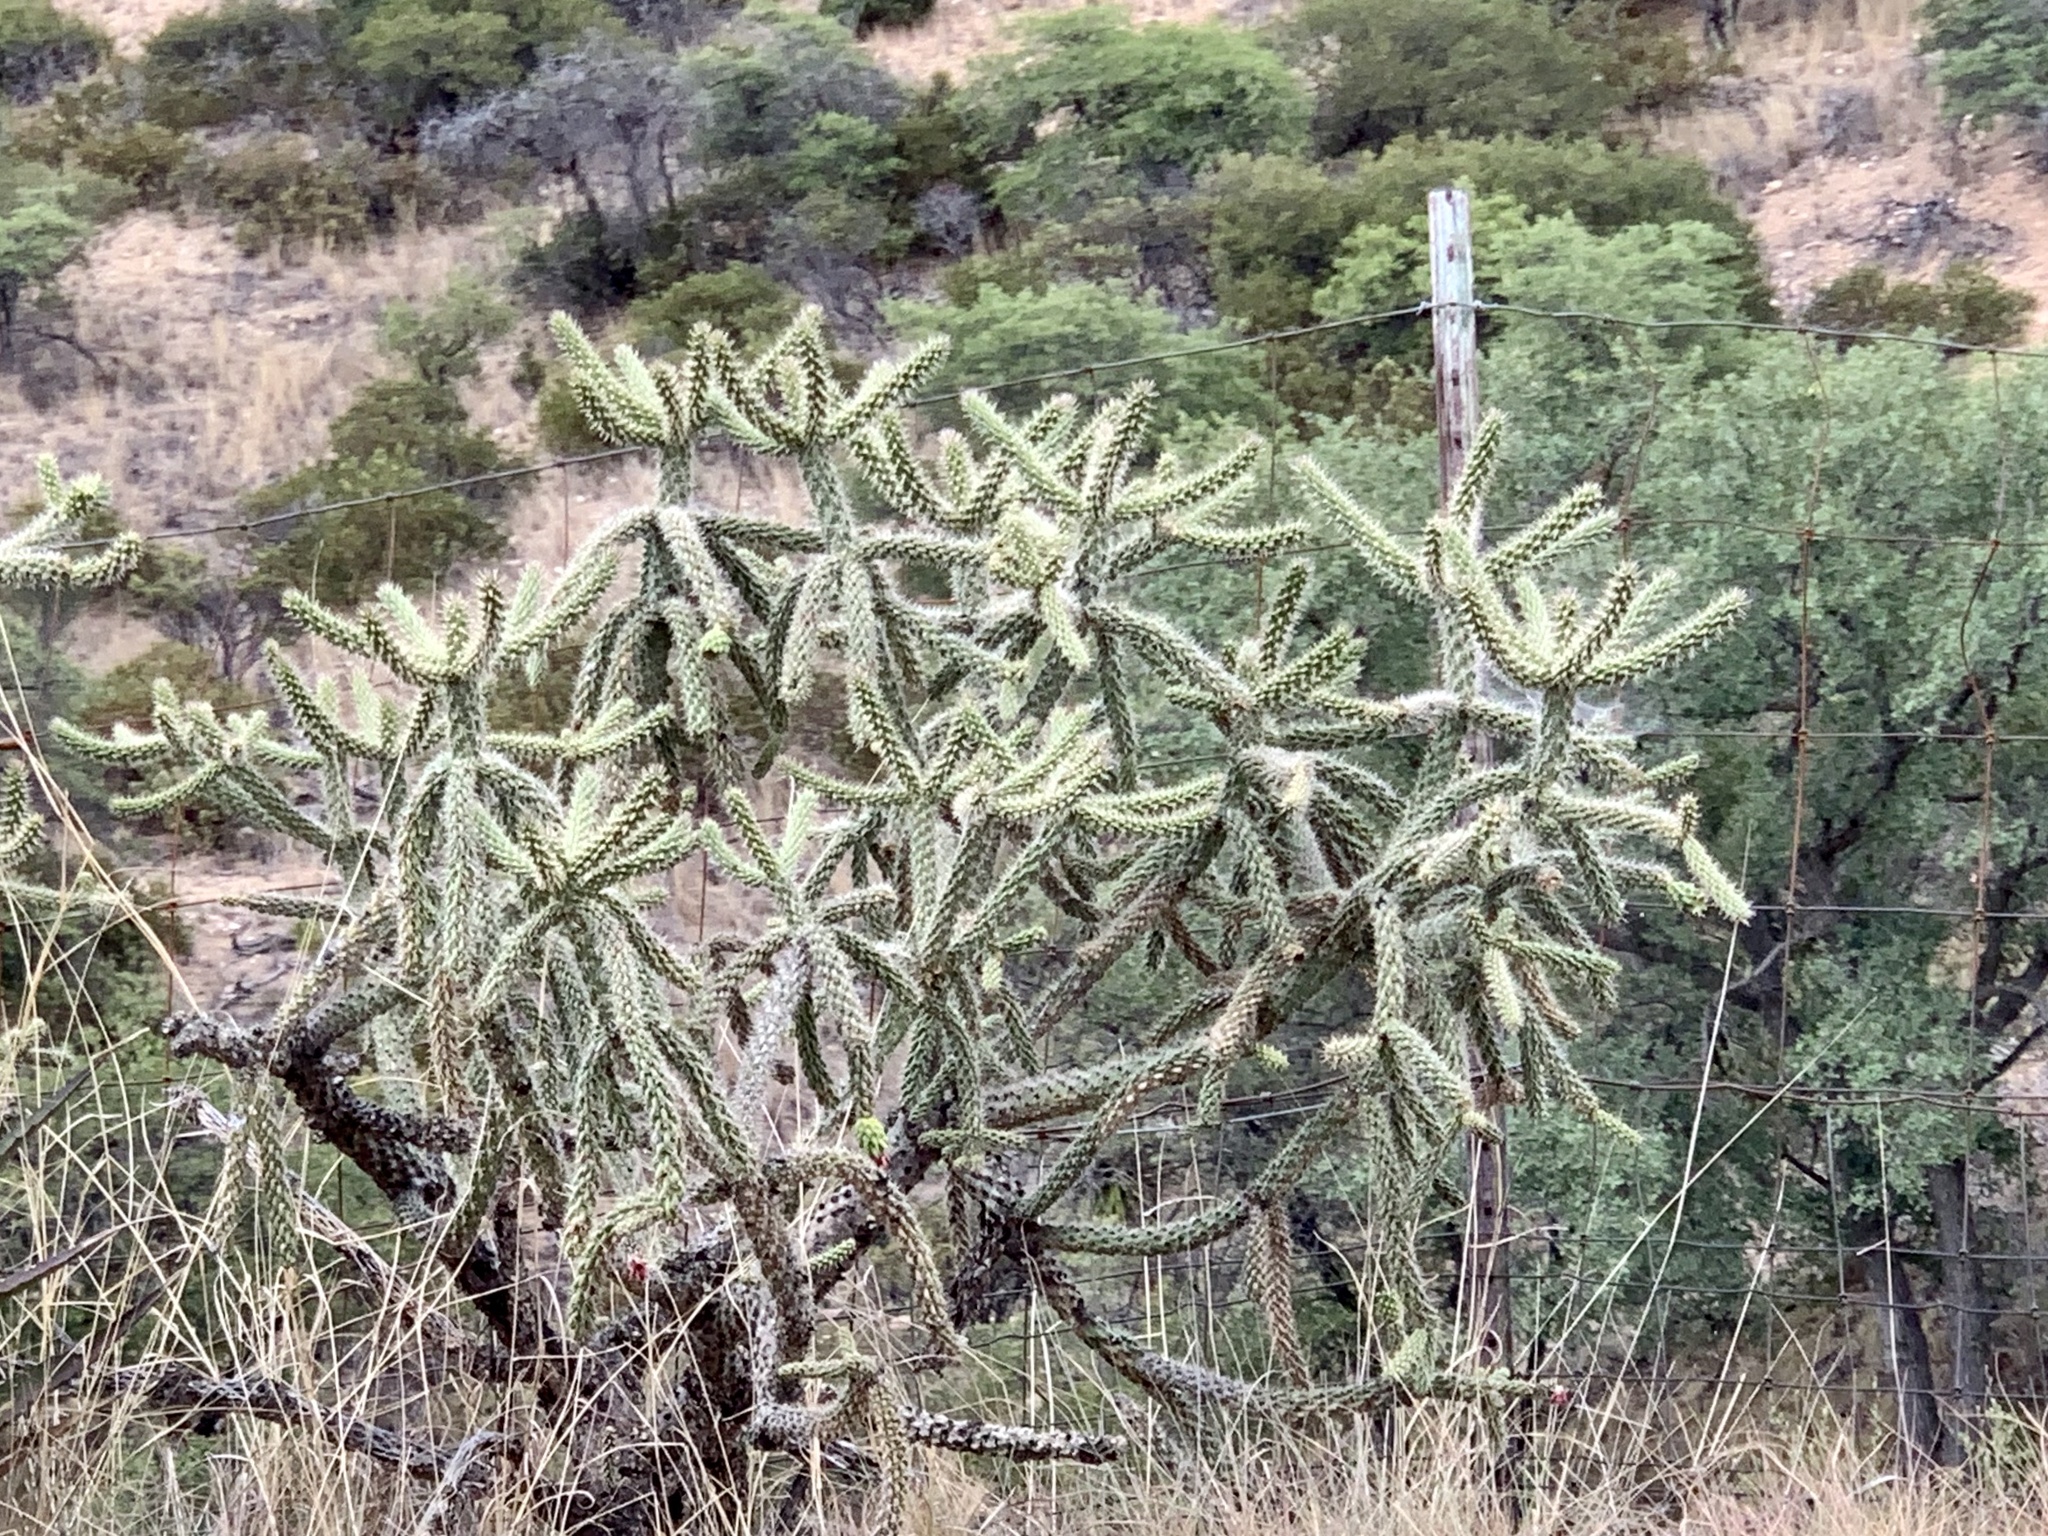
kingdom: Plantae
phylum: Tracheophyta
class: Magnoliopsida
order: Caryophyllales
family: Cactaceae
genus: Cylindropuntia
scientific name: Cylindropuntia imbricata
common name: Candelabrum cactus
